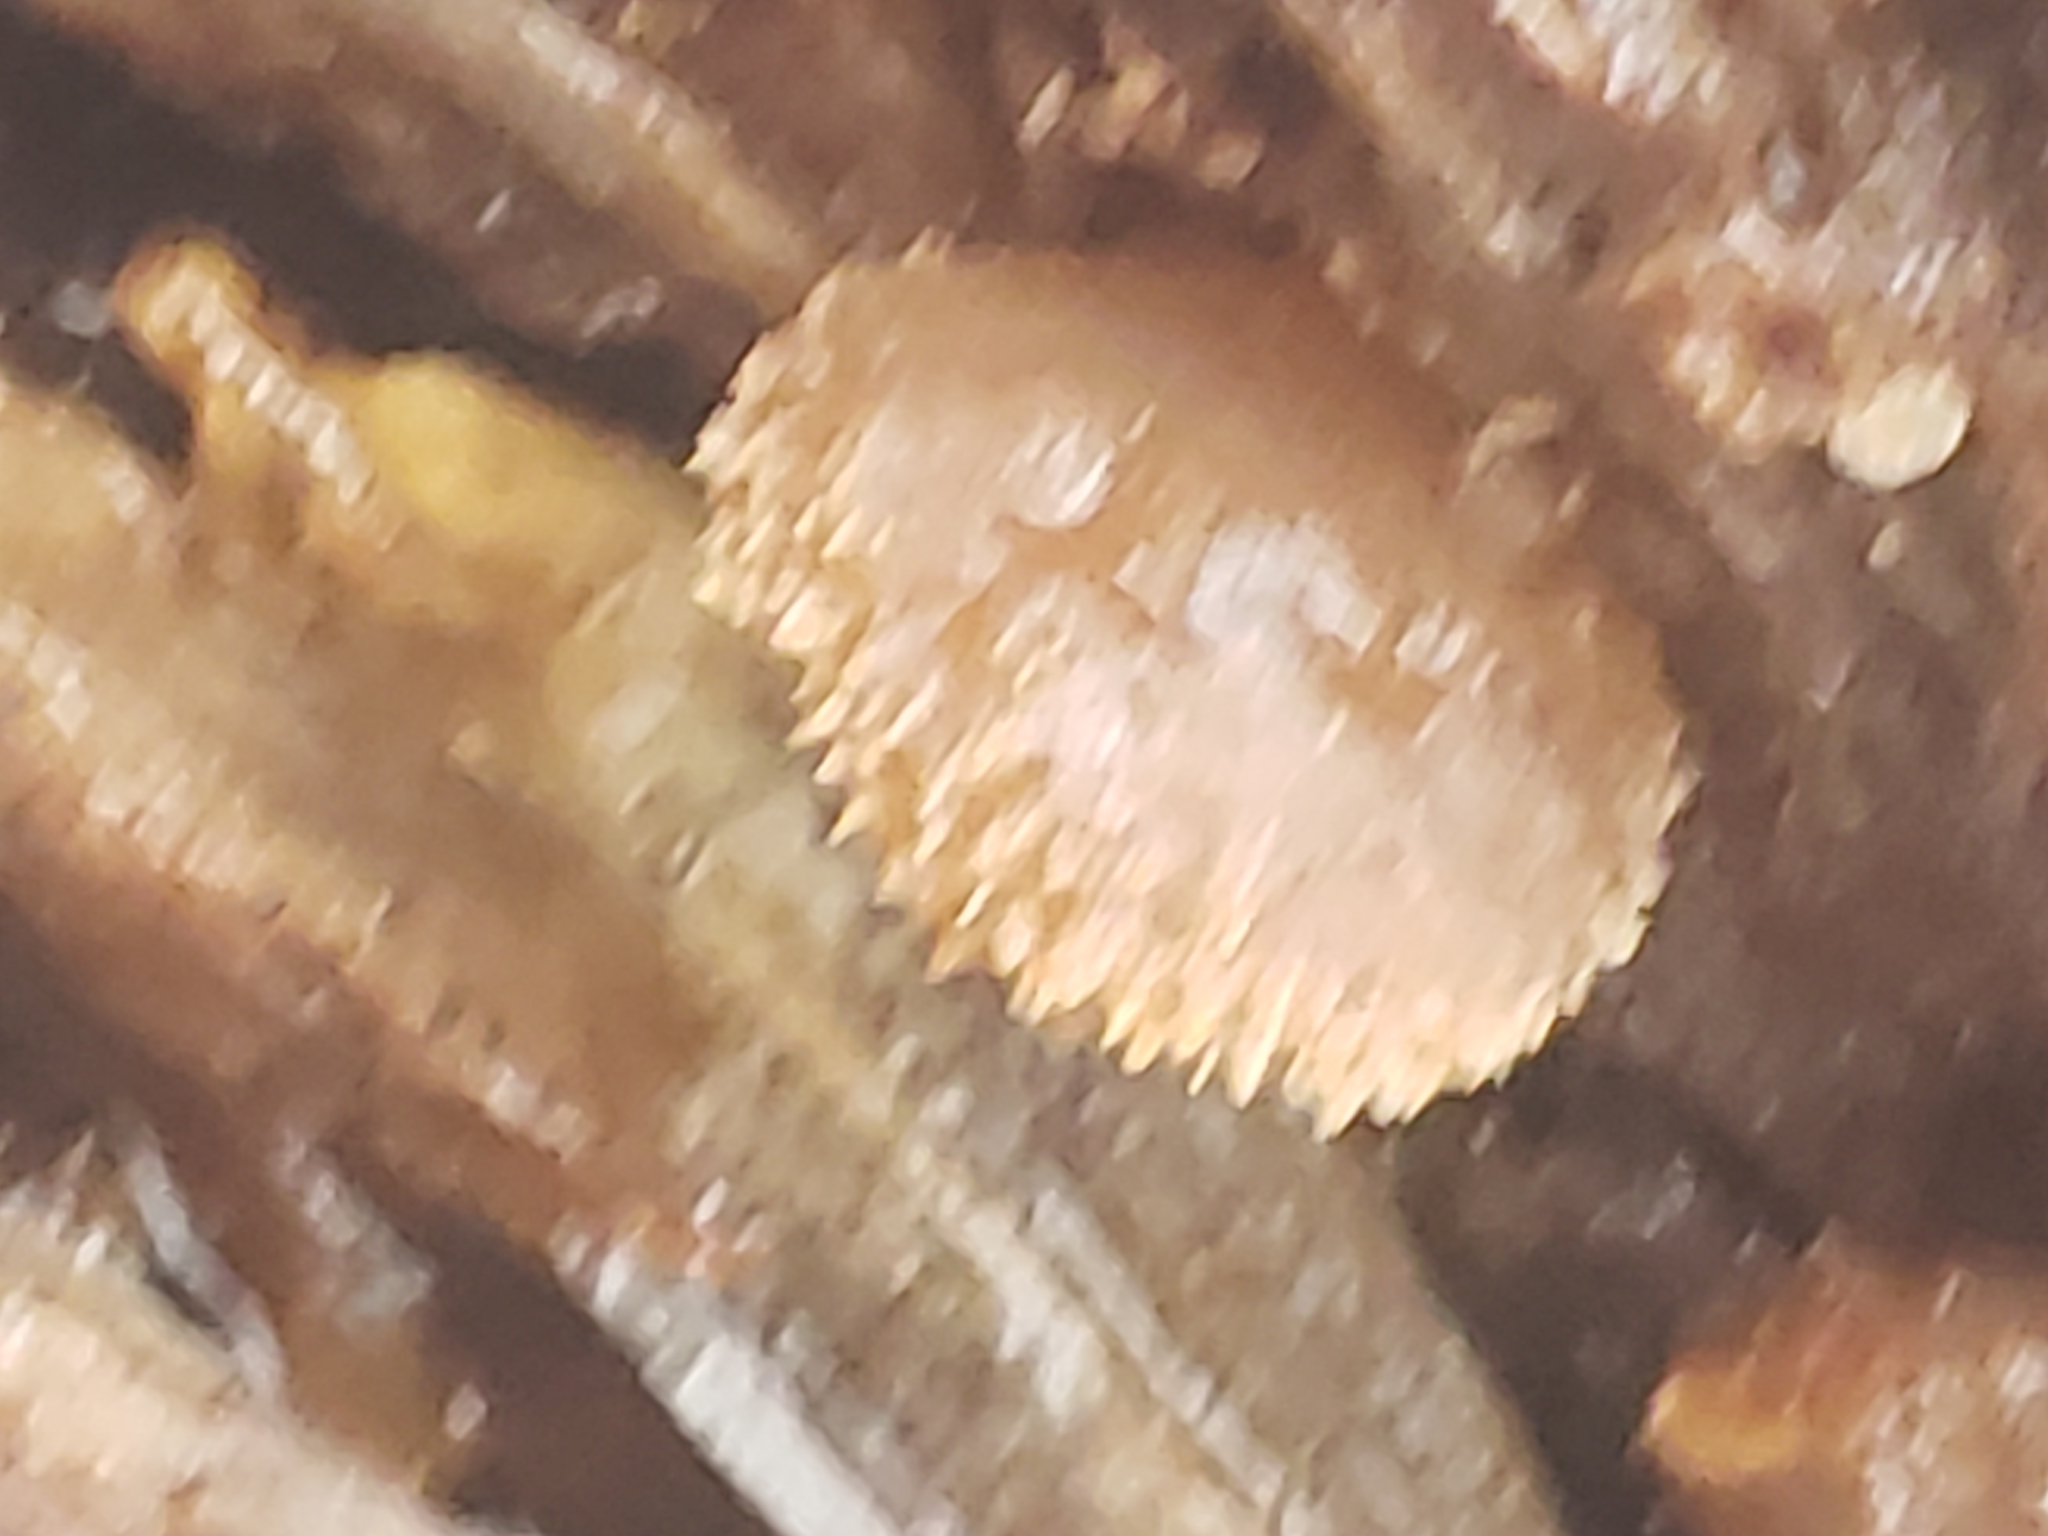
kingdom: Fungi
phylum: Basidiomycota
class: Agaricomycetes
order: Agaricales
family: Pleurotaceae
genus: Hohenbuehelia
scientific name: Hohenbuehelia mastrucata
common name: Woolly oyster
